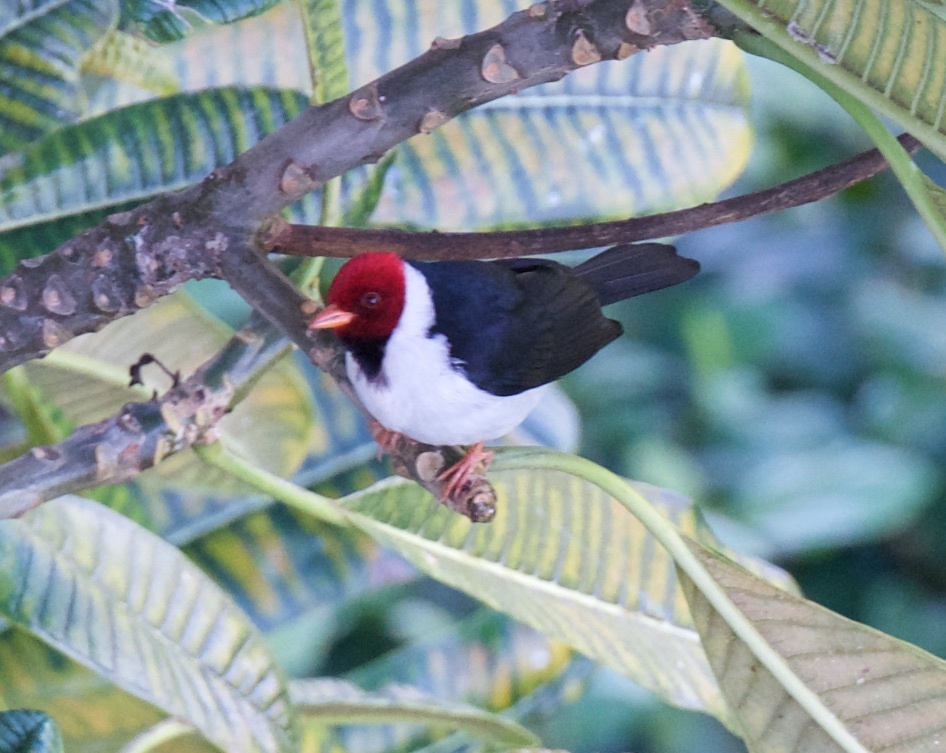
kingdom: Animalia
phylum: Chordata
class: Aves
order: Passeriformes
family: Thraupidae
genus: Paroaria
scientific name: Paroaria capitata
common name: Yellow-billed cardinal
